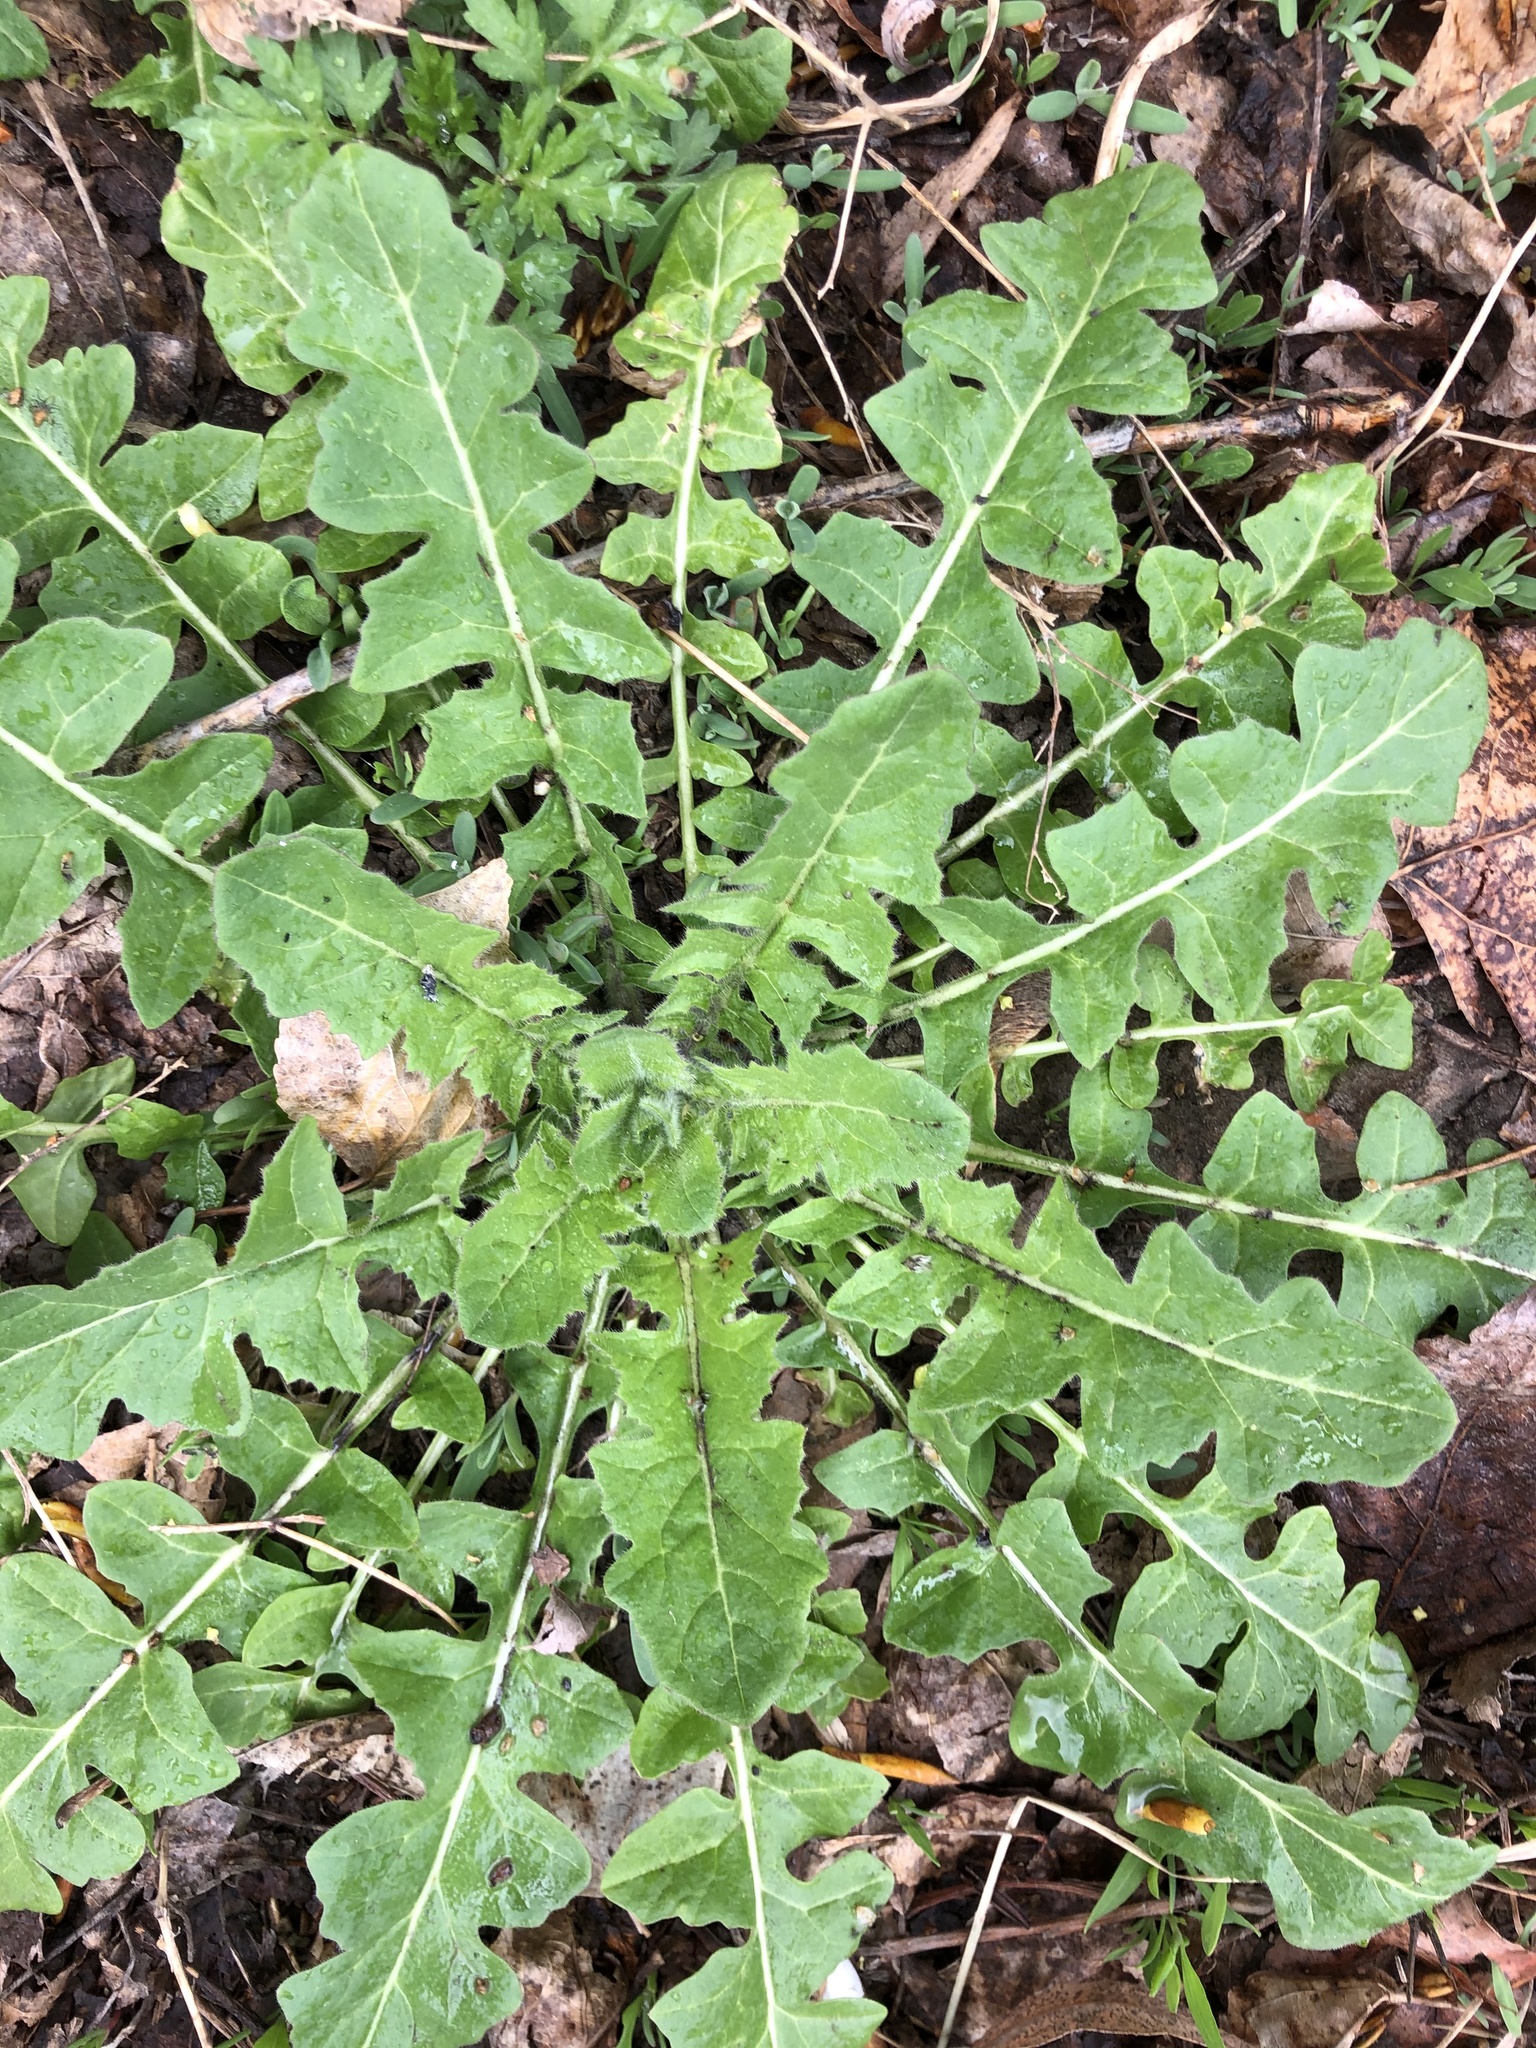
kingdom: Plantae
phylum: Tracheophyta
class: Magnoliopsida
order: Brassicales
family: Brassicaceae
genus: Sisymbrium
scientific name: Sisymbrium loeselii
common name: False london-rocket
